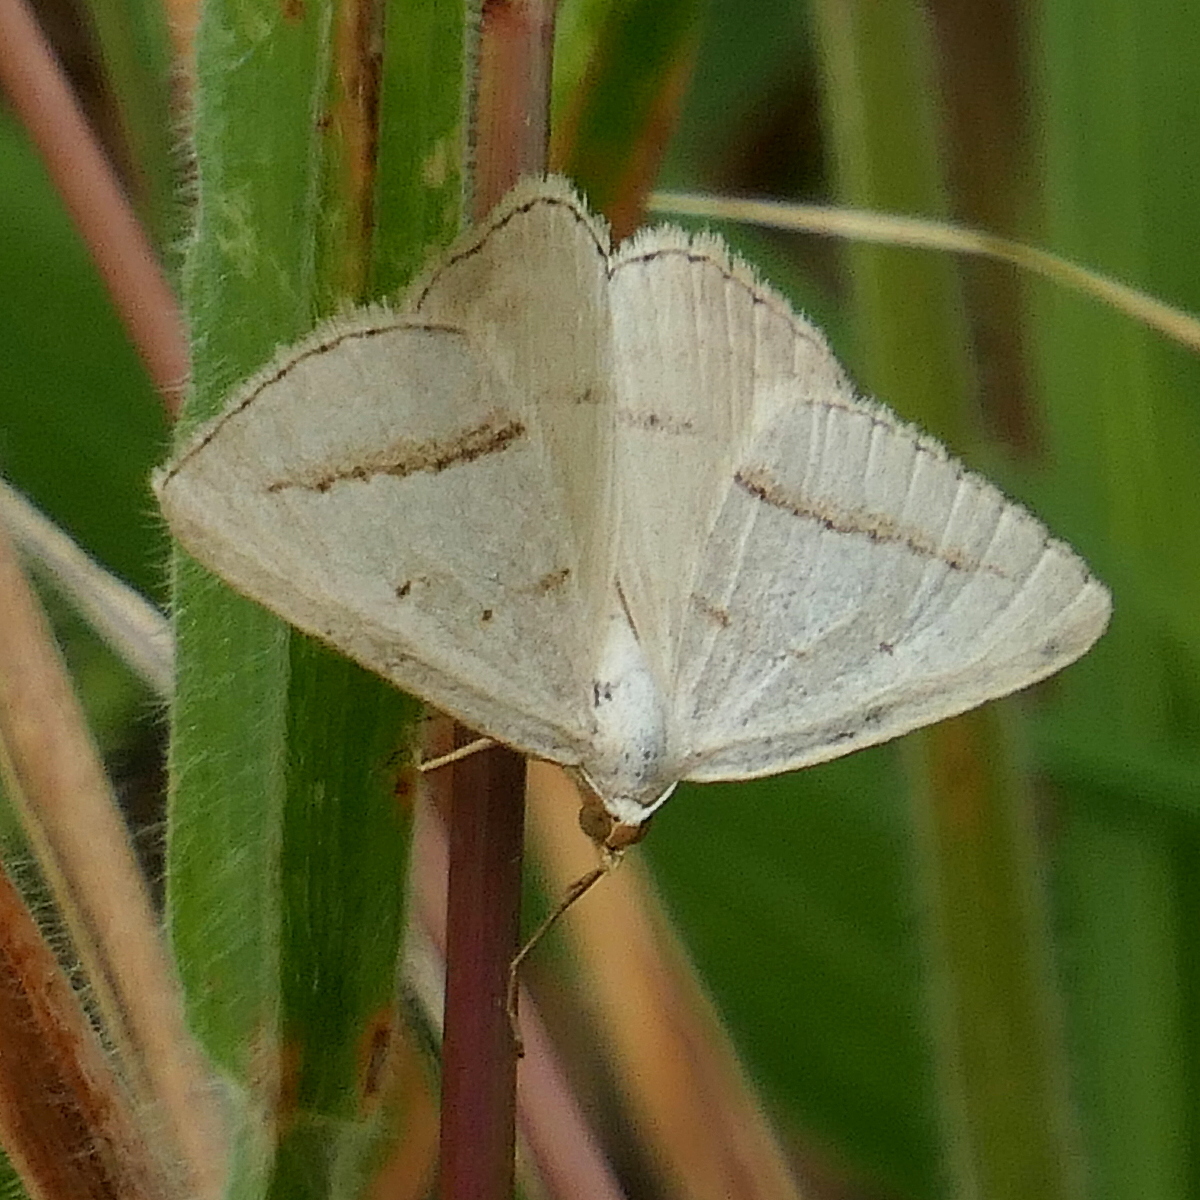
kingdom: Animalia
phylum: Arthropoda
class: Insecta
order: Lepidoptera
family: Geometridae
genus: Taxeotis
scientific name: Taxeotis endela
